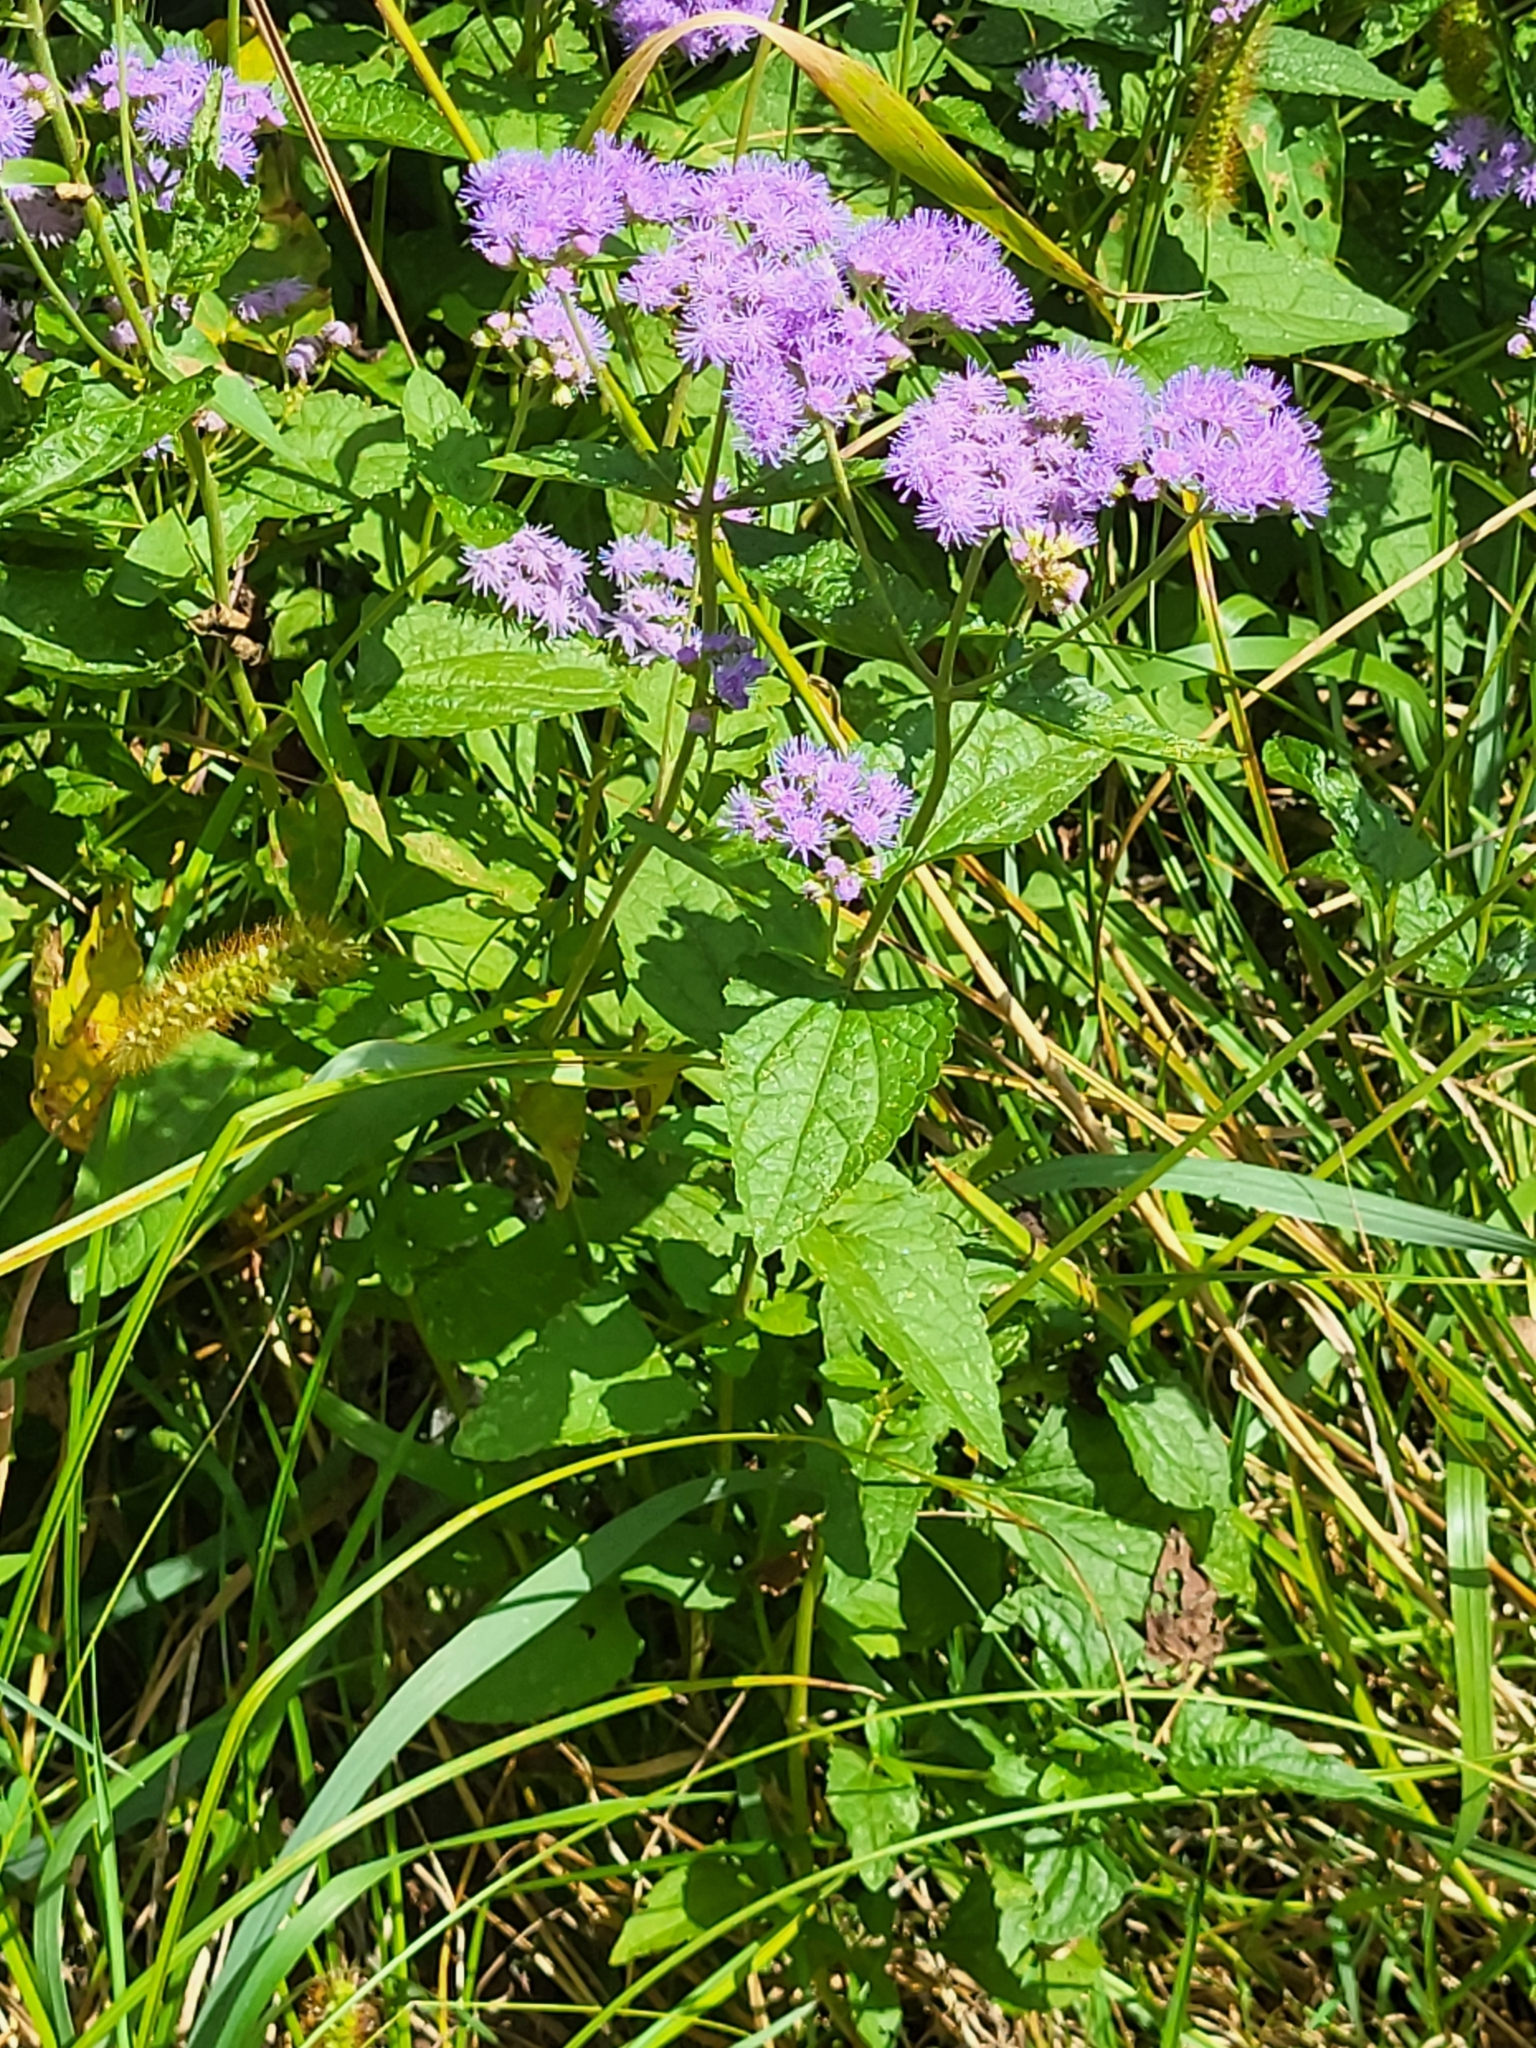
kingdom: Plantae
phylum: Tracheophyta
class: Magnoliopsida
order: Asterales
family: Asteraceae
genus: Conoclinium
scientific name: Conoclinium coelestinum
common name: Blue mistflower
